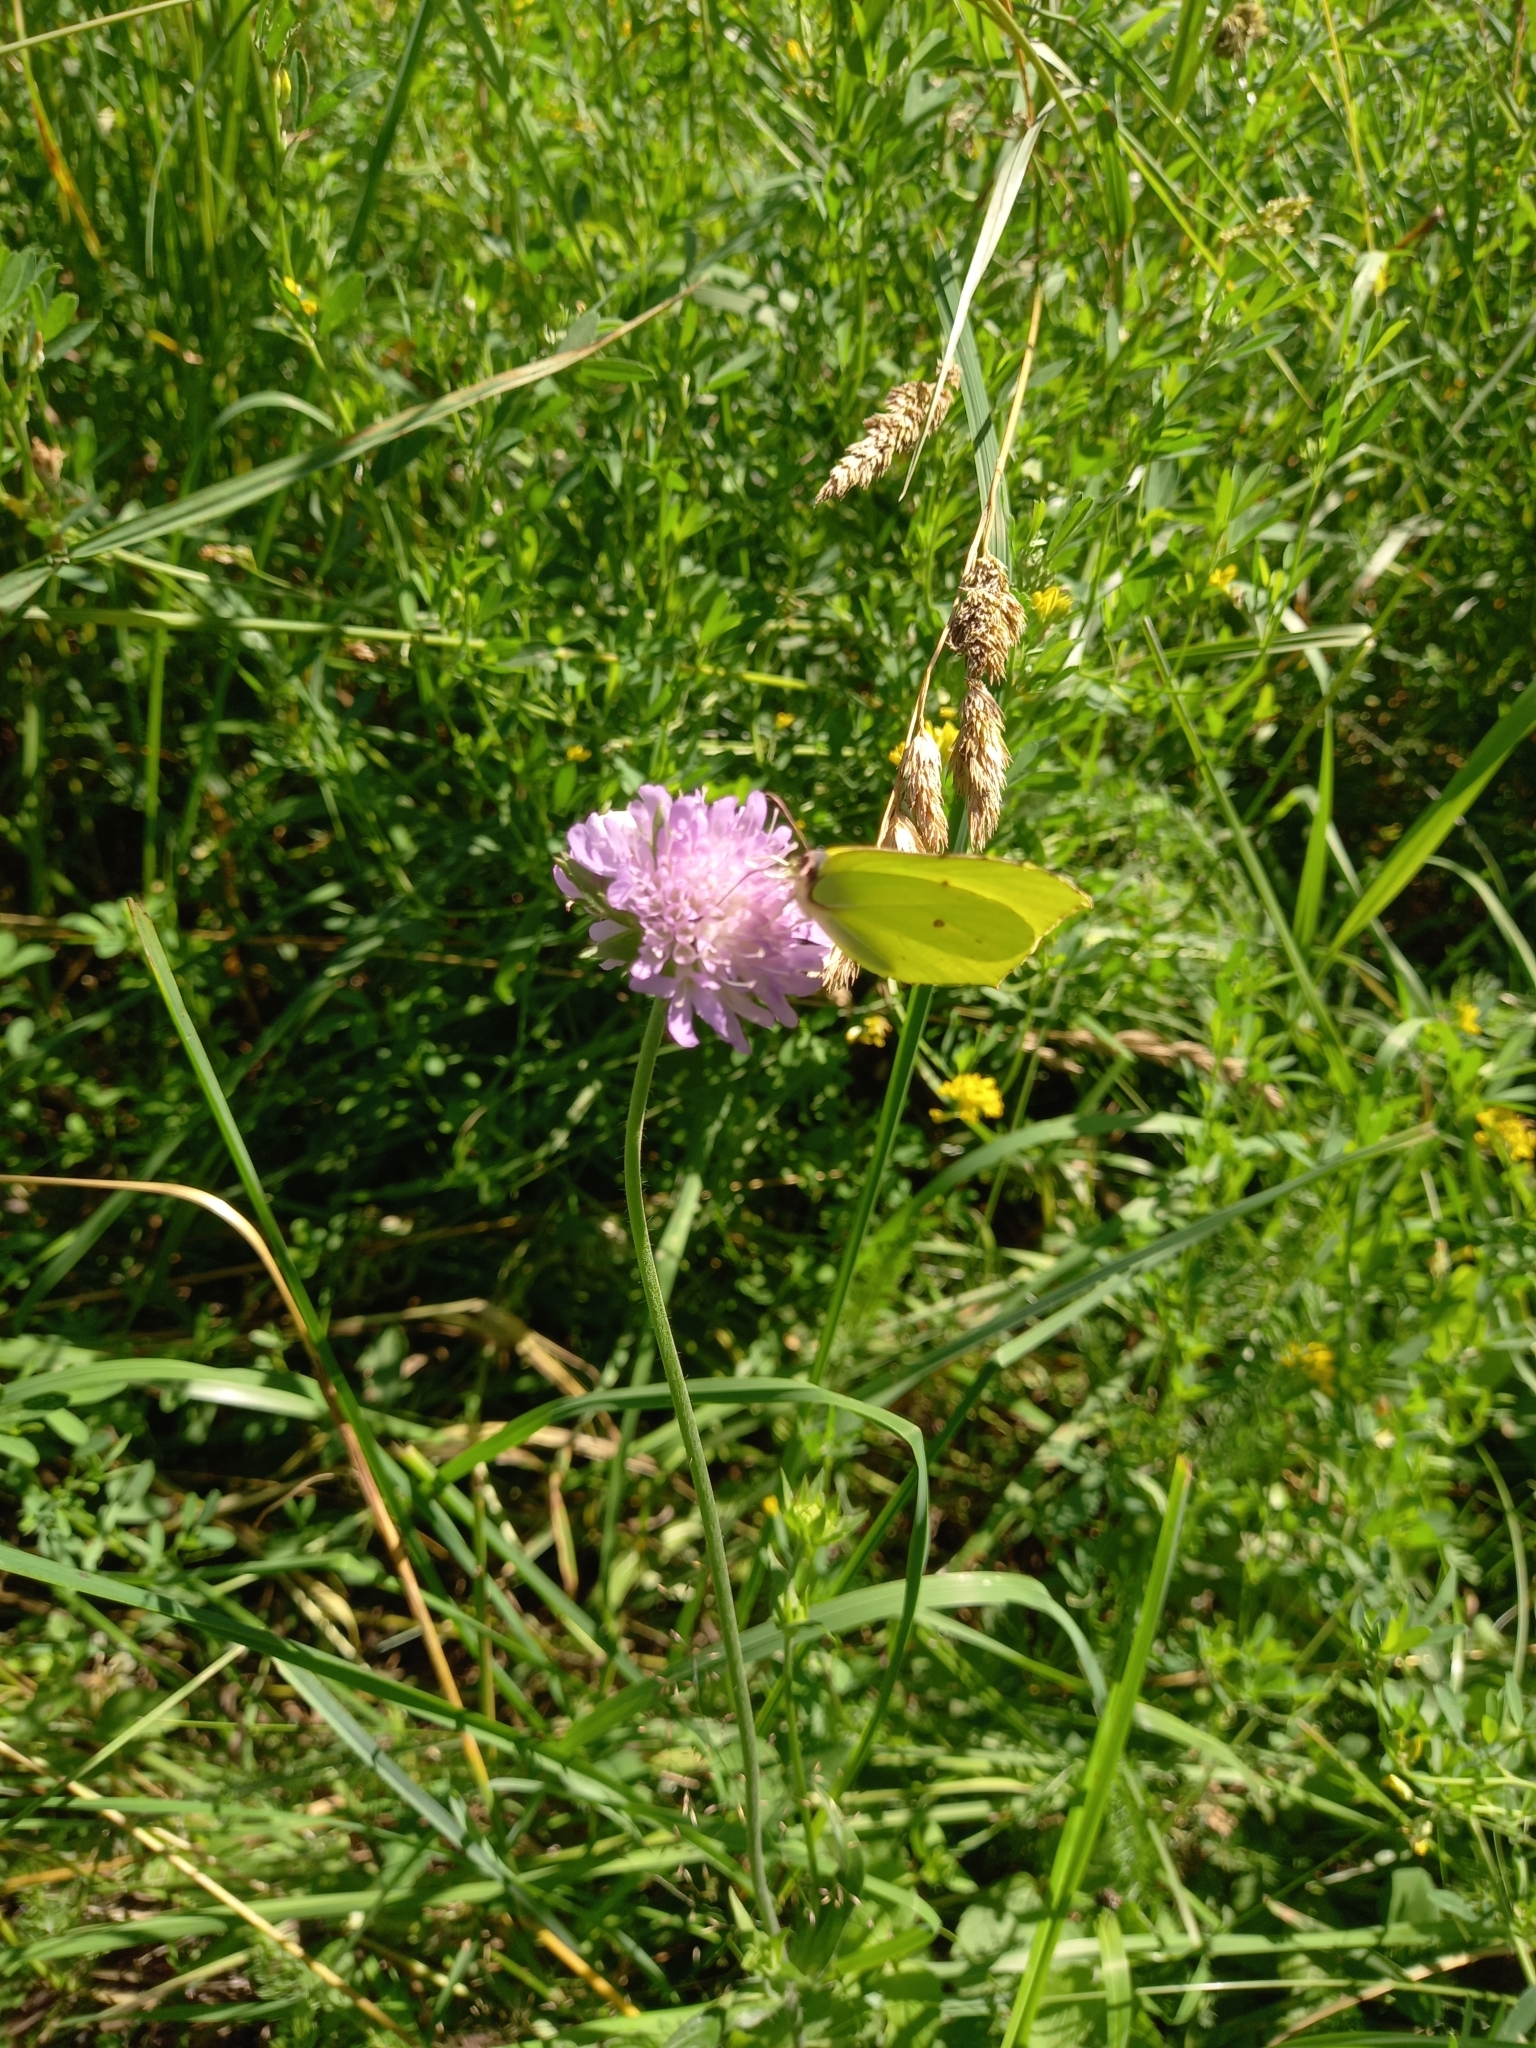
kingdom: Animalia
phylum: Arthropoda
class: Insecta
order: Lepidoptera
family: Pieridae
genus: Gonepteryx
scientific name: Gonepteryx rhamni
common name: Brimstone
